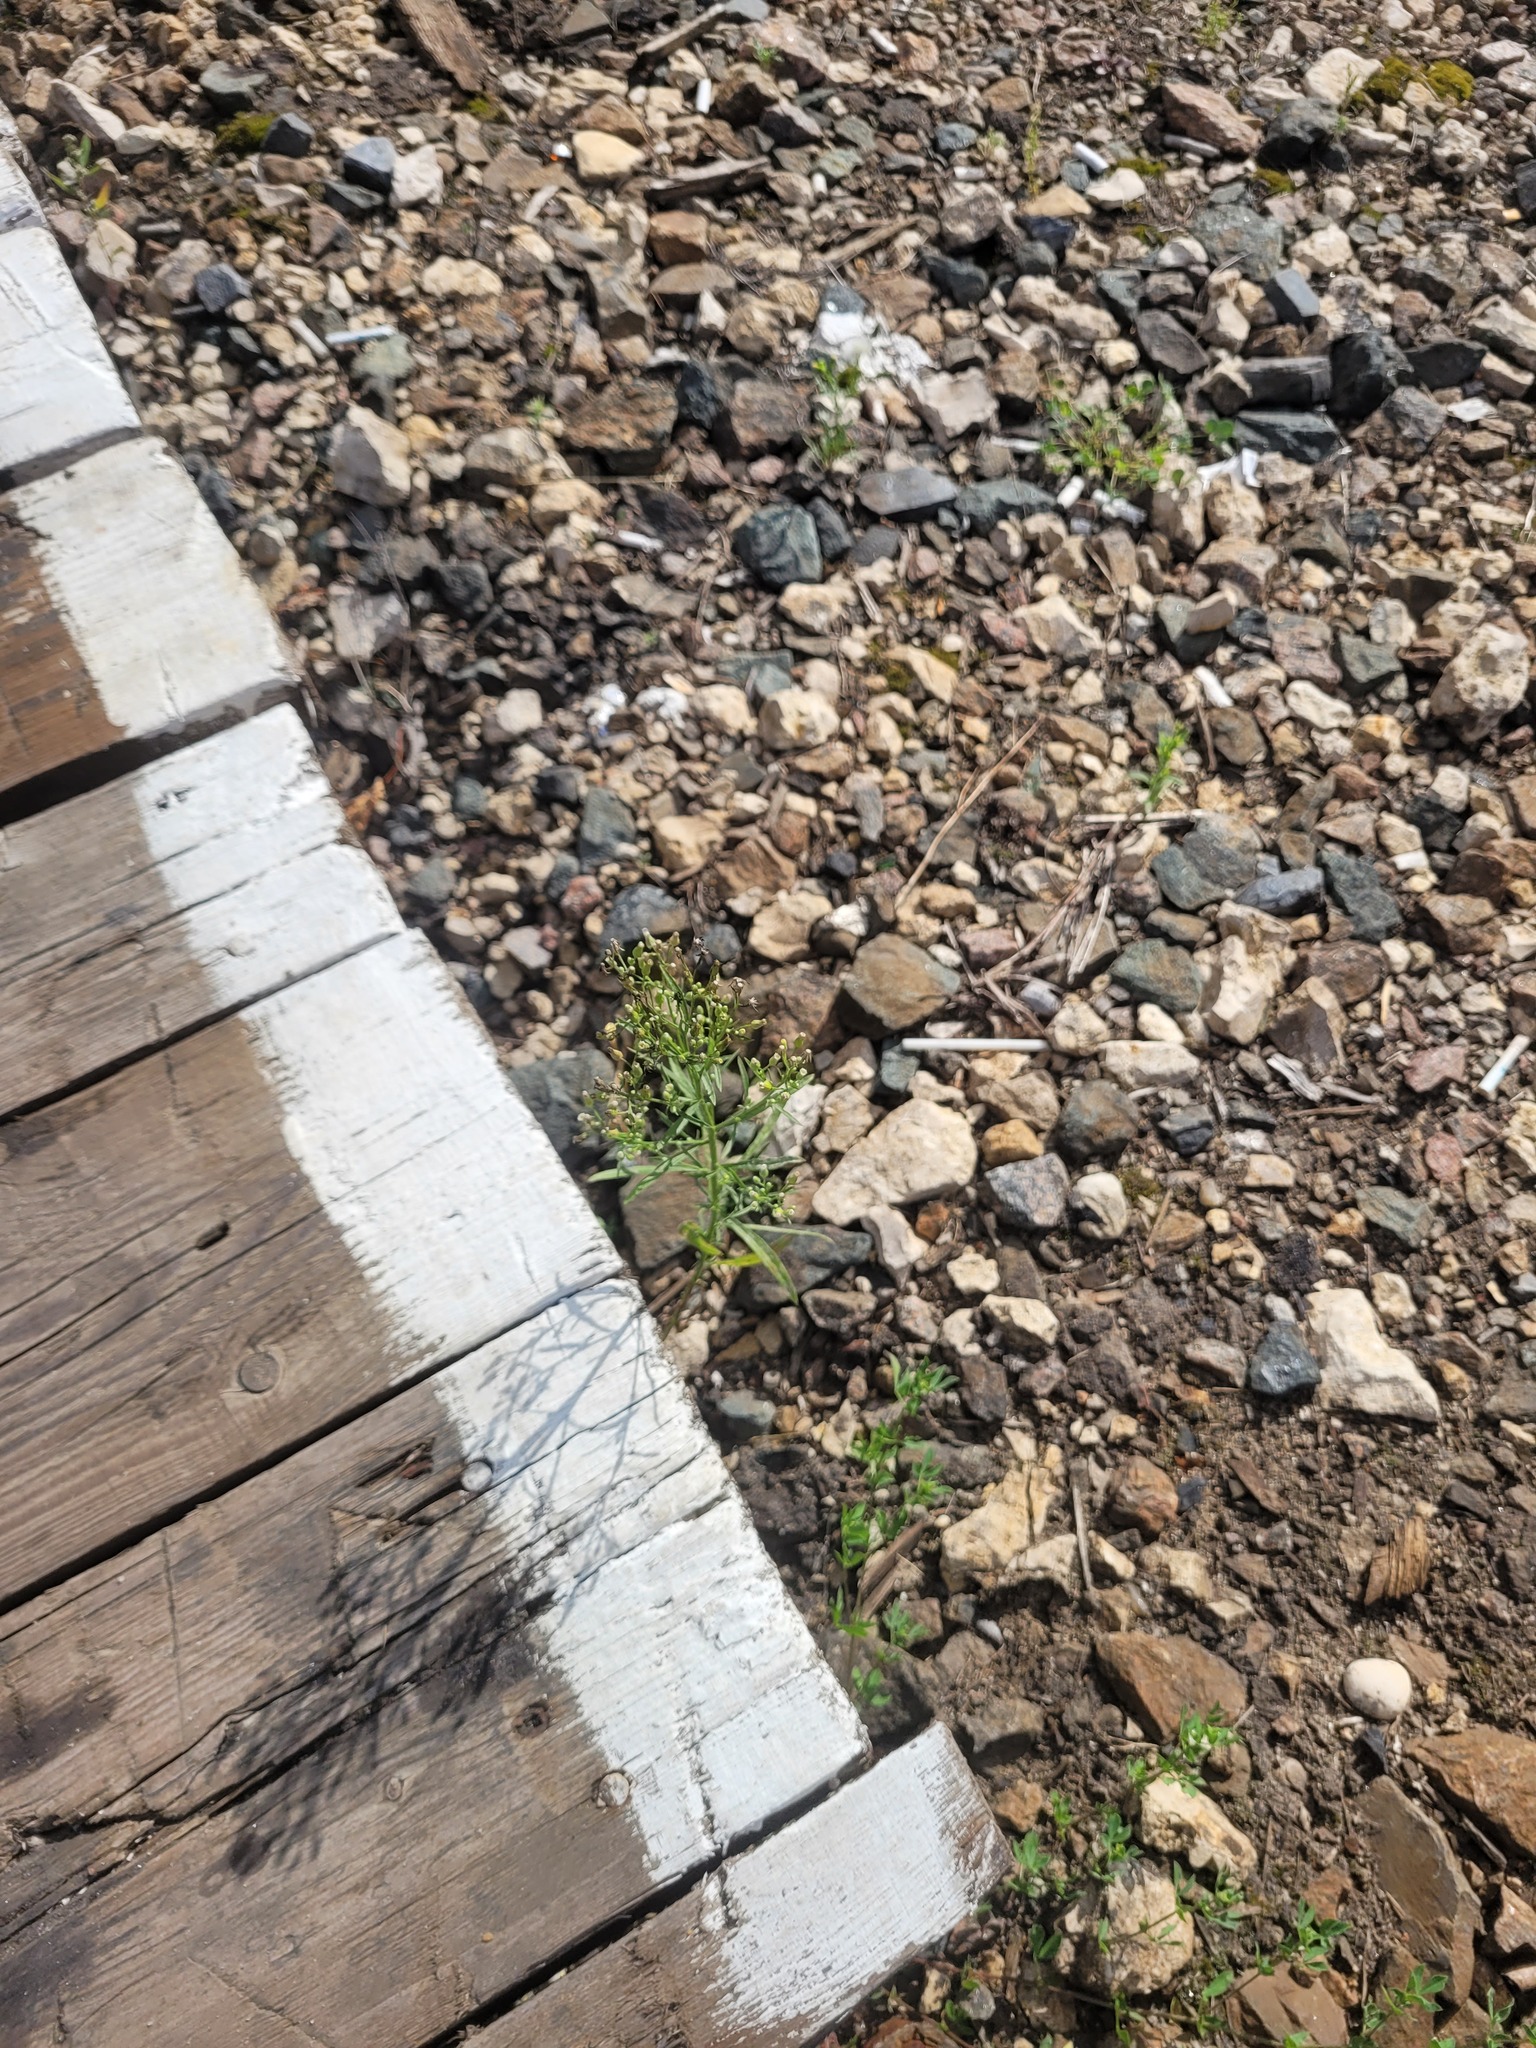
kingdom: Plantae
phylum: Tracheophyta
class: Magnoliopsida
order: Asterales
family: Asteraceae
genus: Erigeron
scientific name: Erigeron canadensis
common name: Canadian fleabane
